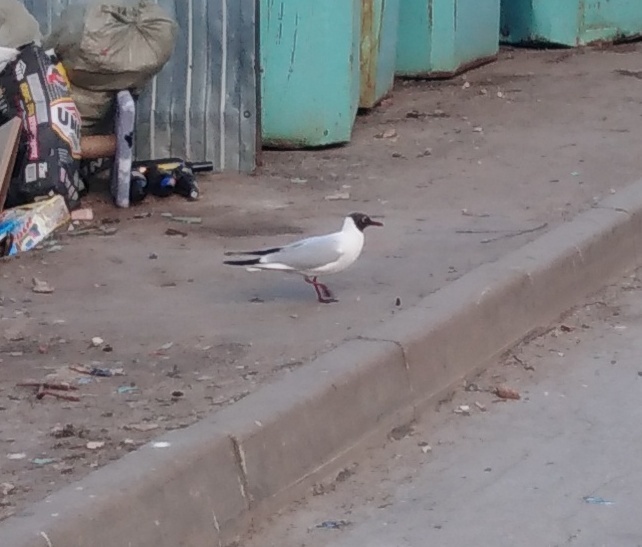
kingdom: Animalia
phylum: Chordata
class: Aves
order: Charadriiformes
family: Laridae
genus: Chroicocephalus
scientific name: Chroicocephalus ridibundus
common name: Black-headed gull
